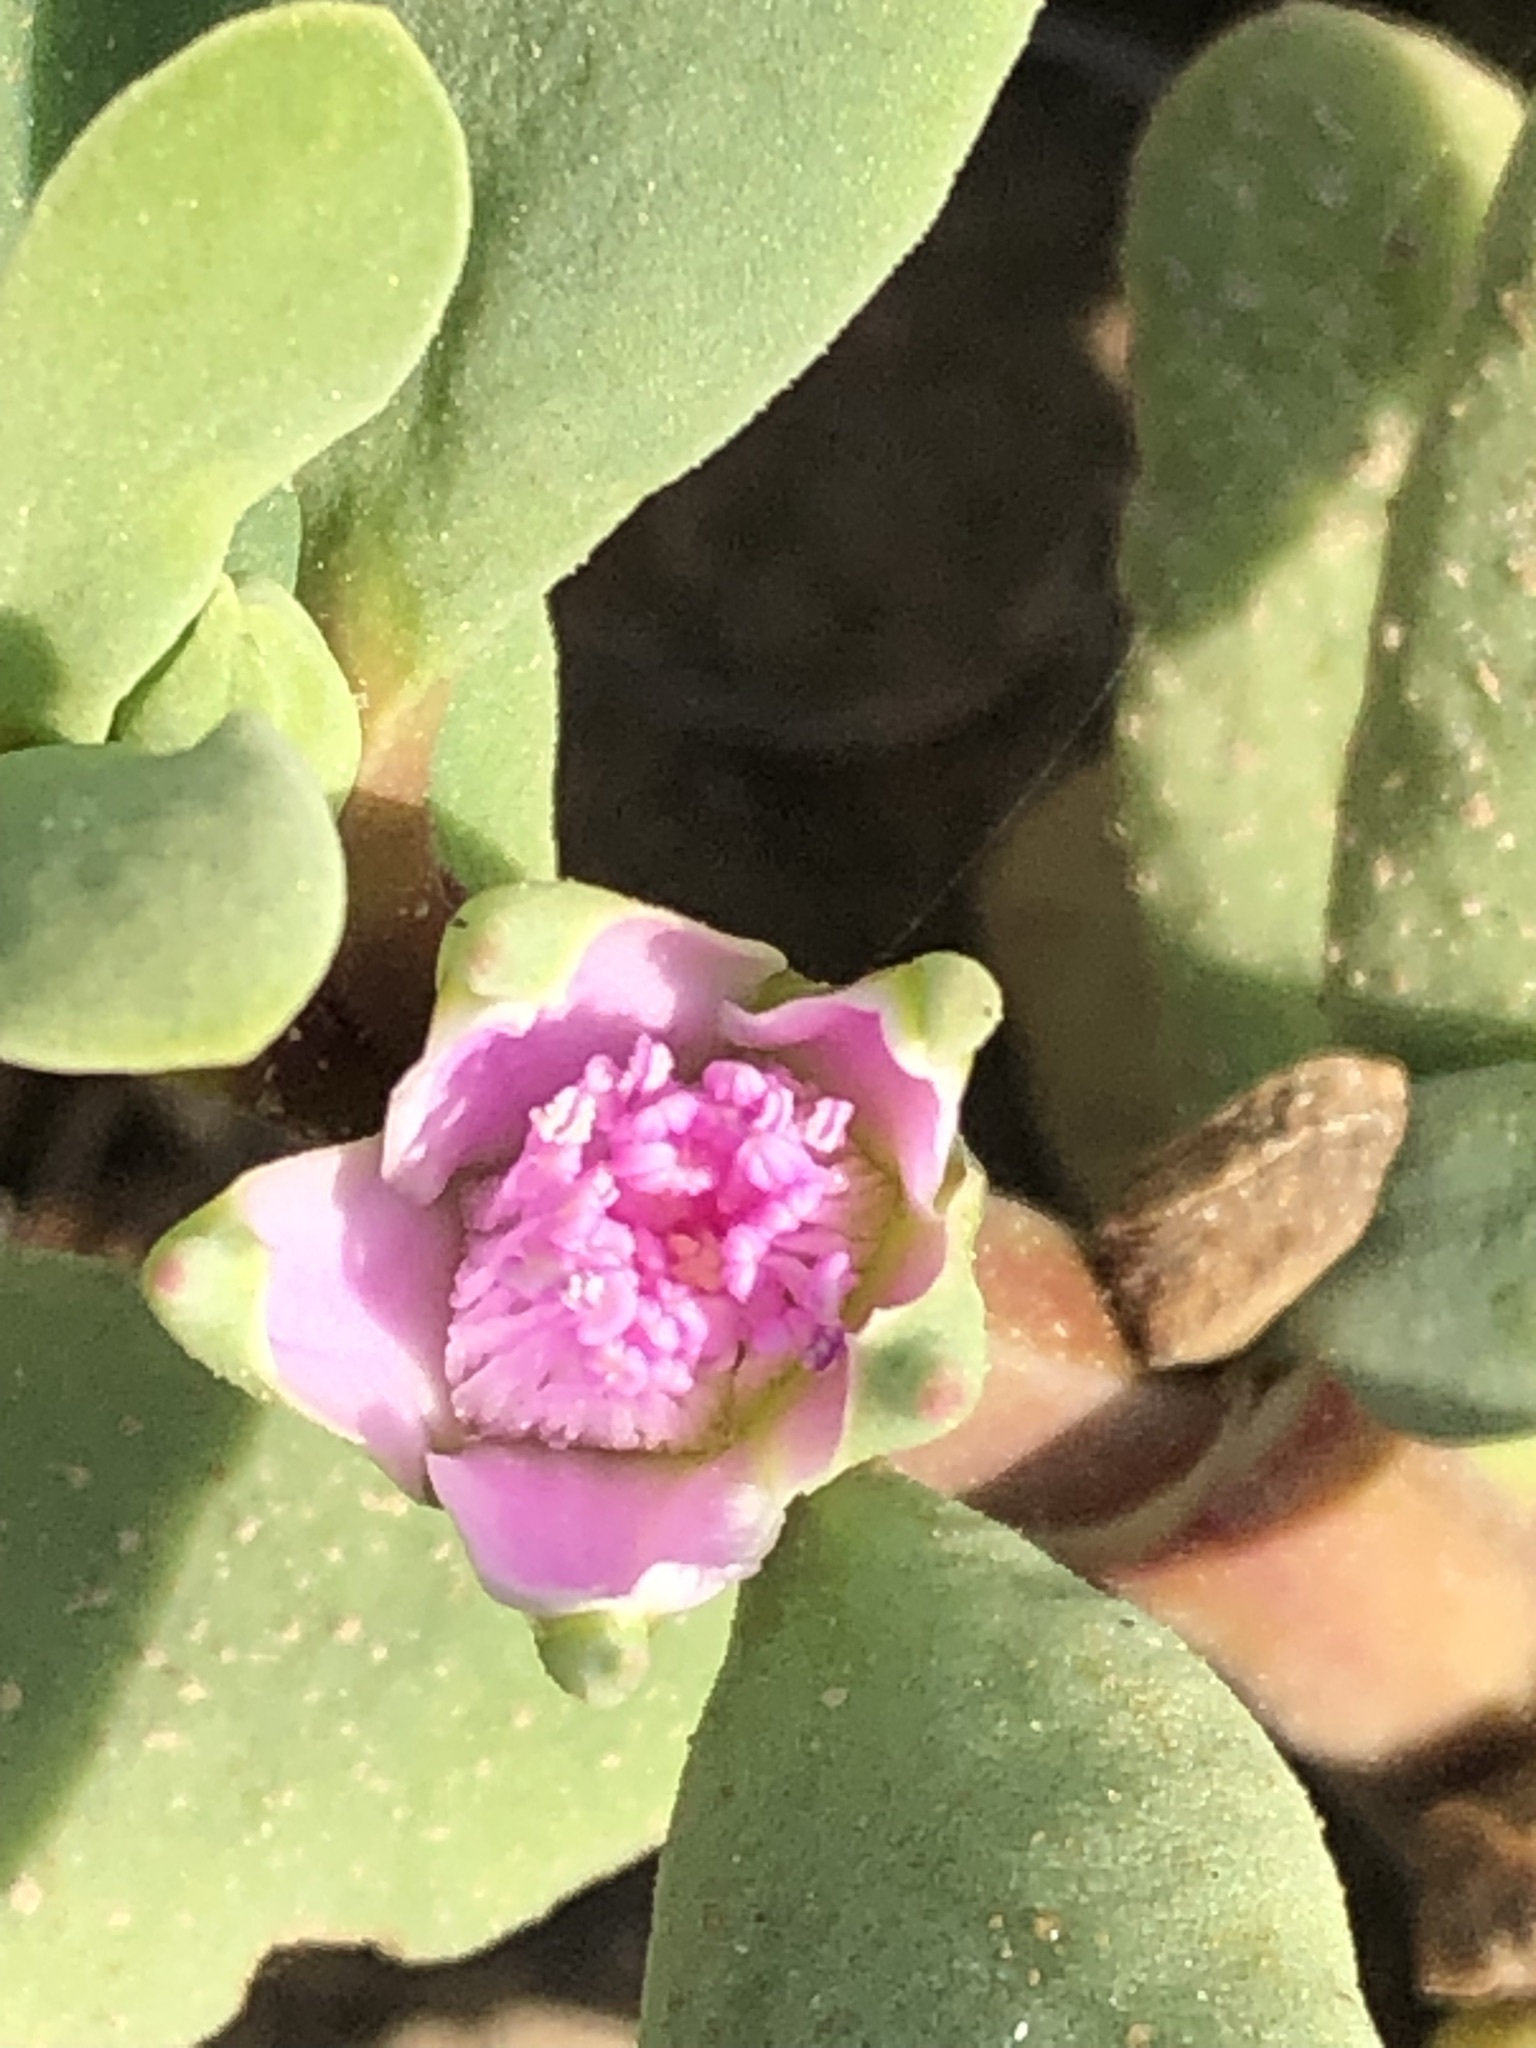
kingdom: Plantae
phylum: Tracheophyta
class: Magnoliopsida
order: Caryophyllales
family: Aizoaceae
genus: Sesuvium
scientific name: Sesuvium portulacastrum
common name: Sea-purslane
